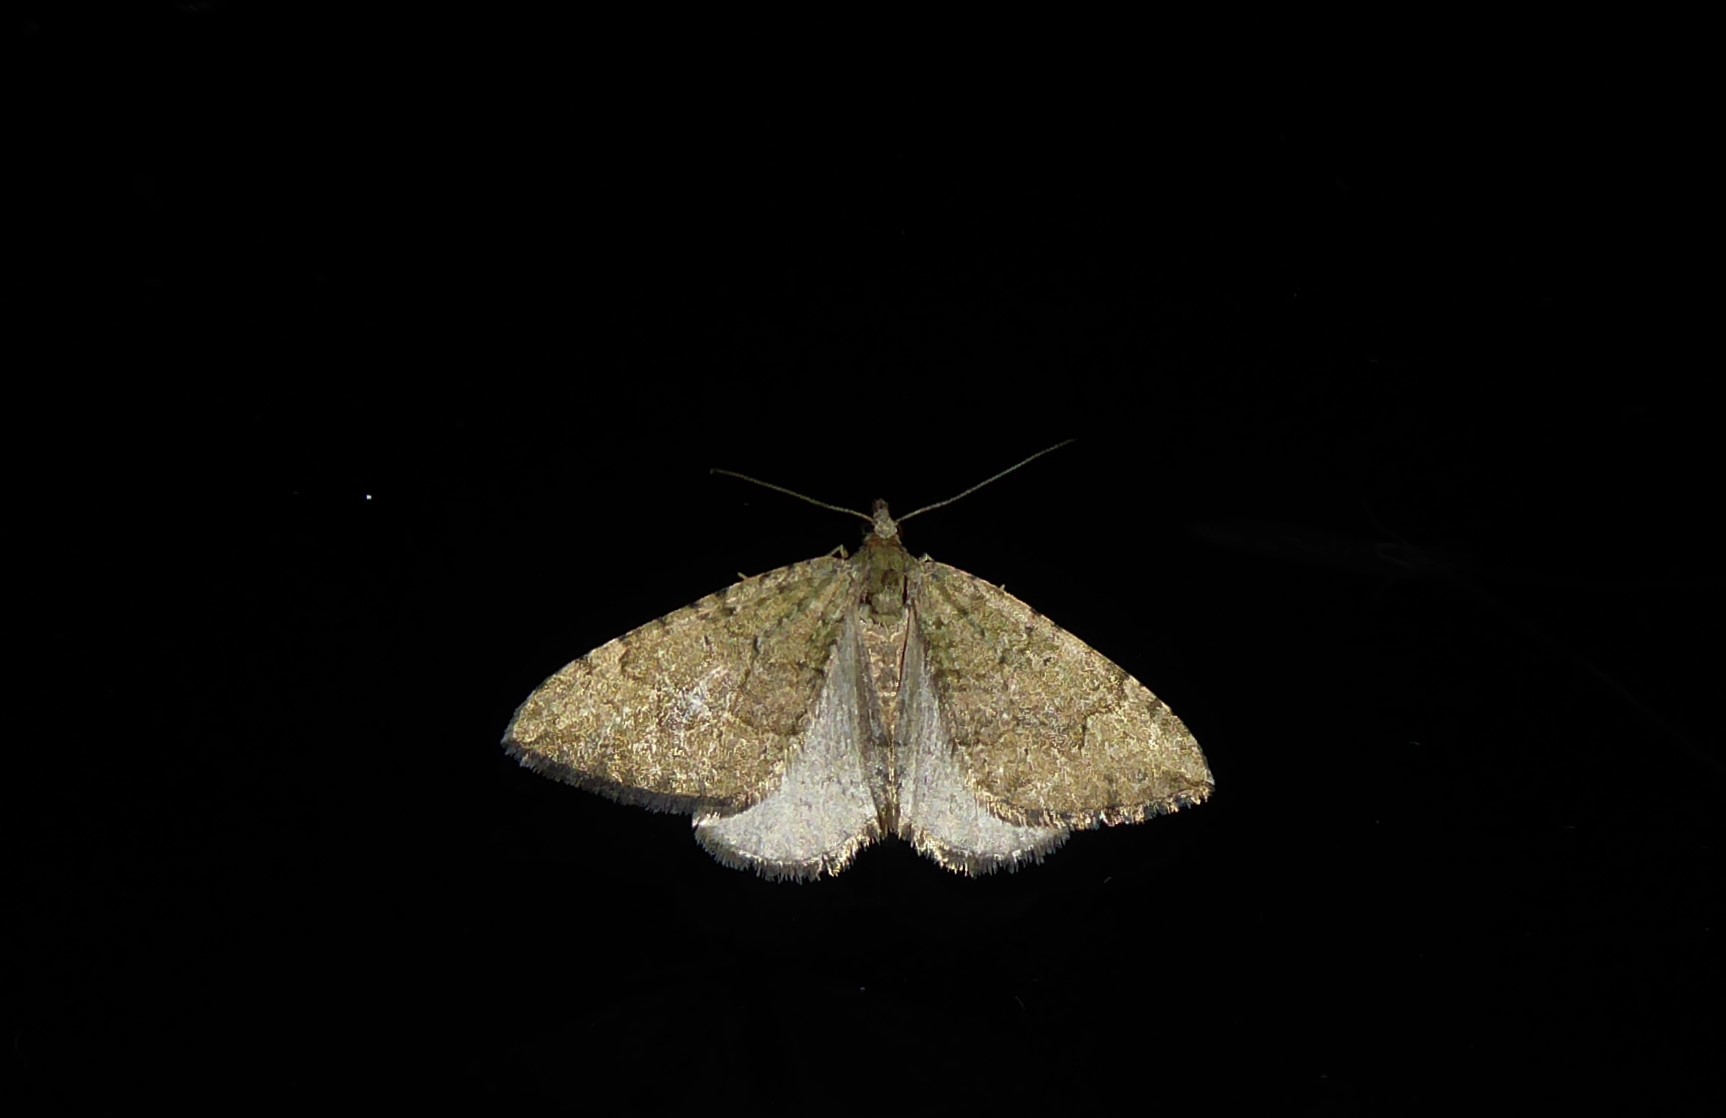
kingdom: Animalia
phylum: Arthropoda
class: Insecta
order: Lepidoptera
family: Geometridae
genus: Epyaxa
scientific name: Epyaxa rosearia
